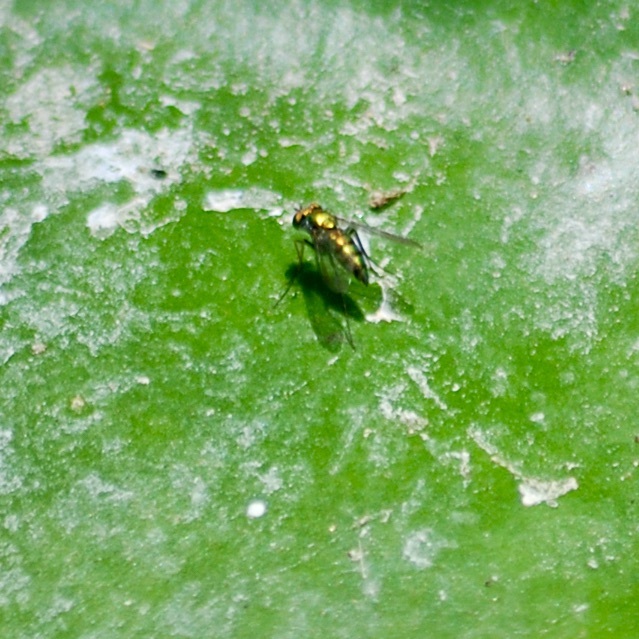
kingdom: Animalia
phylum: Arthropoda
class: Insecta
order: Diptera
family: Dolichopodidae
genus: Condylostylus
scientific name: Condylostylus longicornis
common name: Long-legged fly
